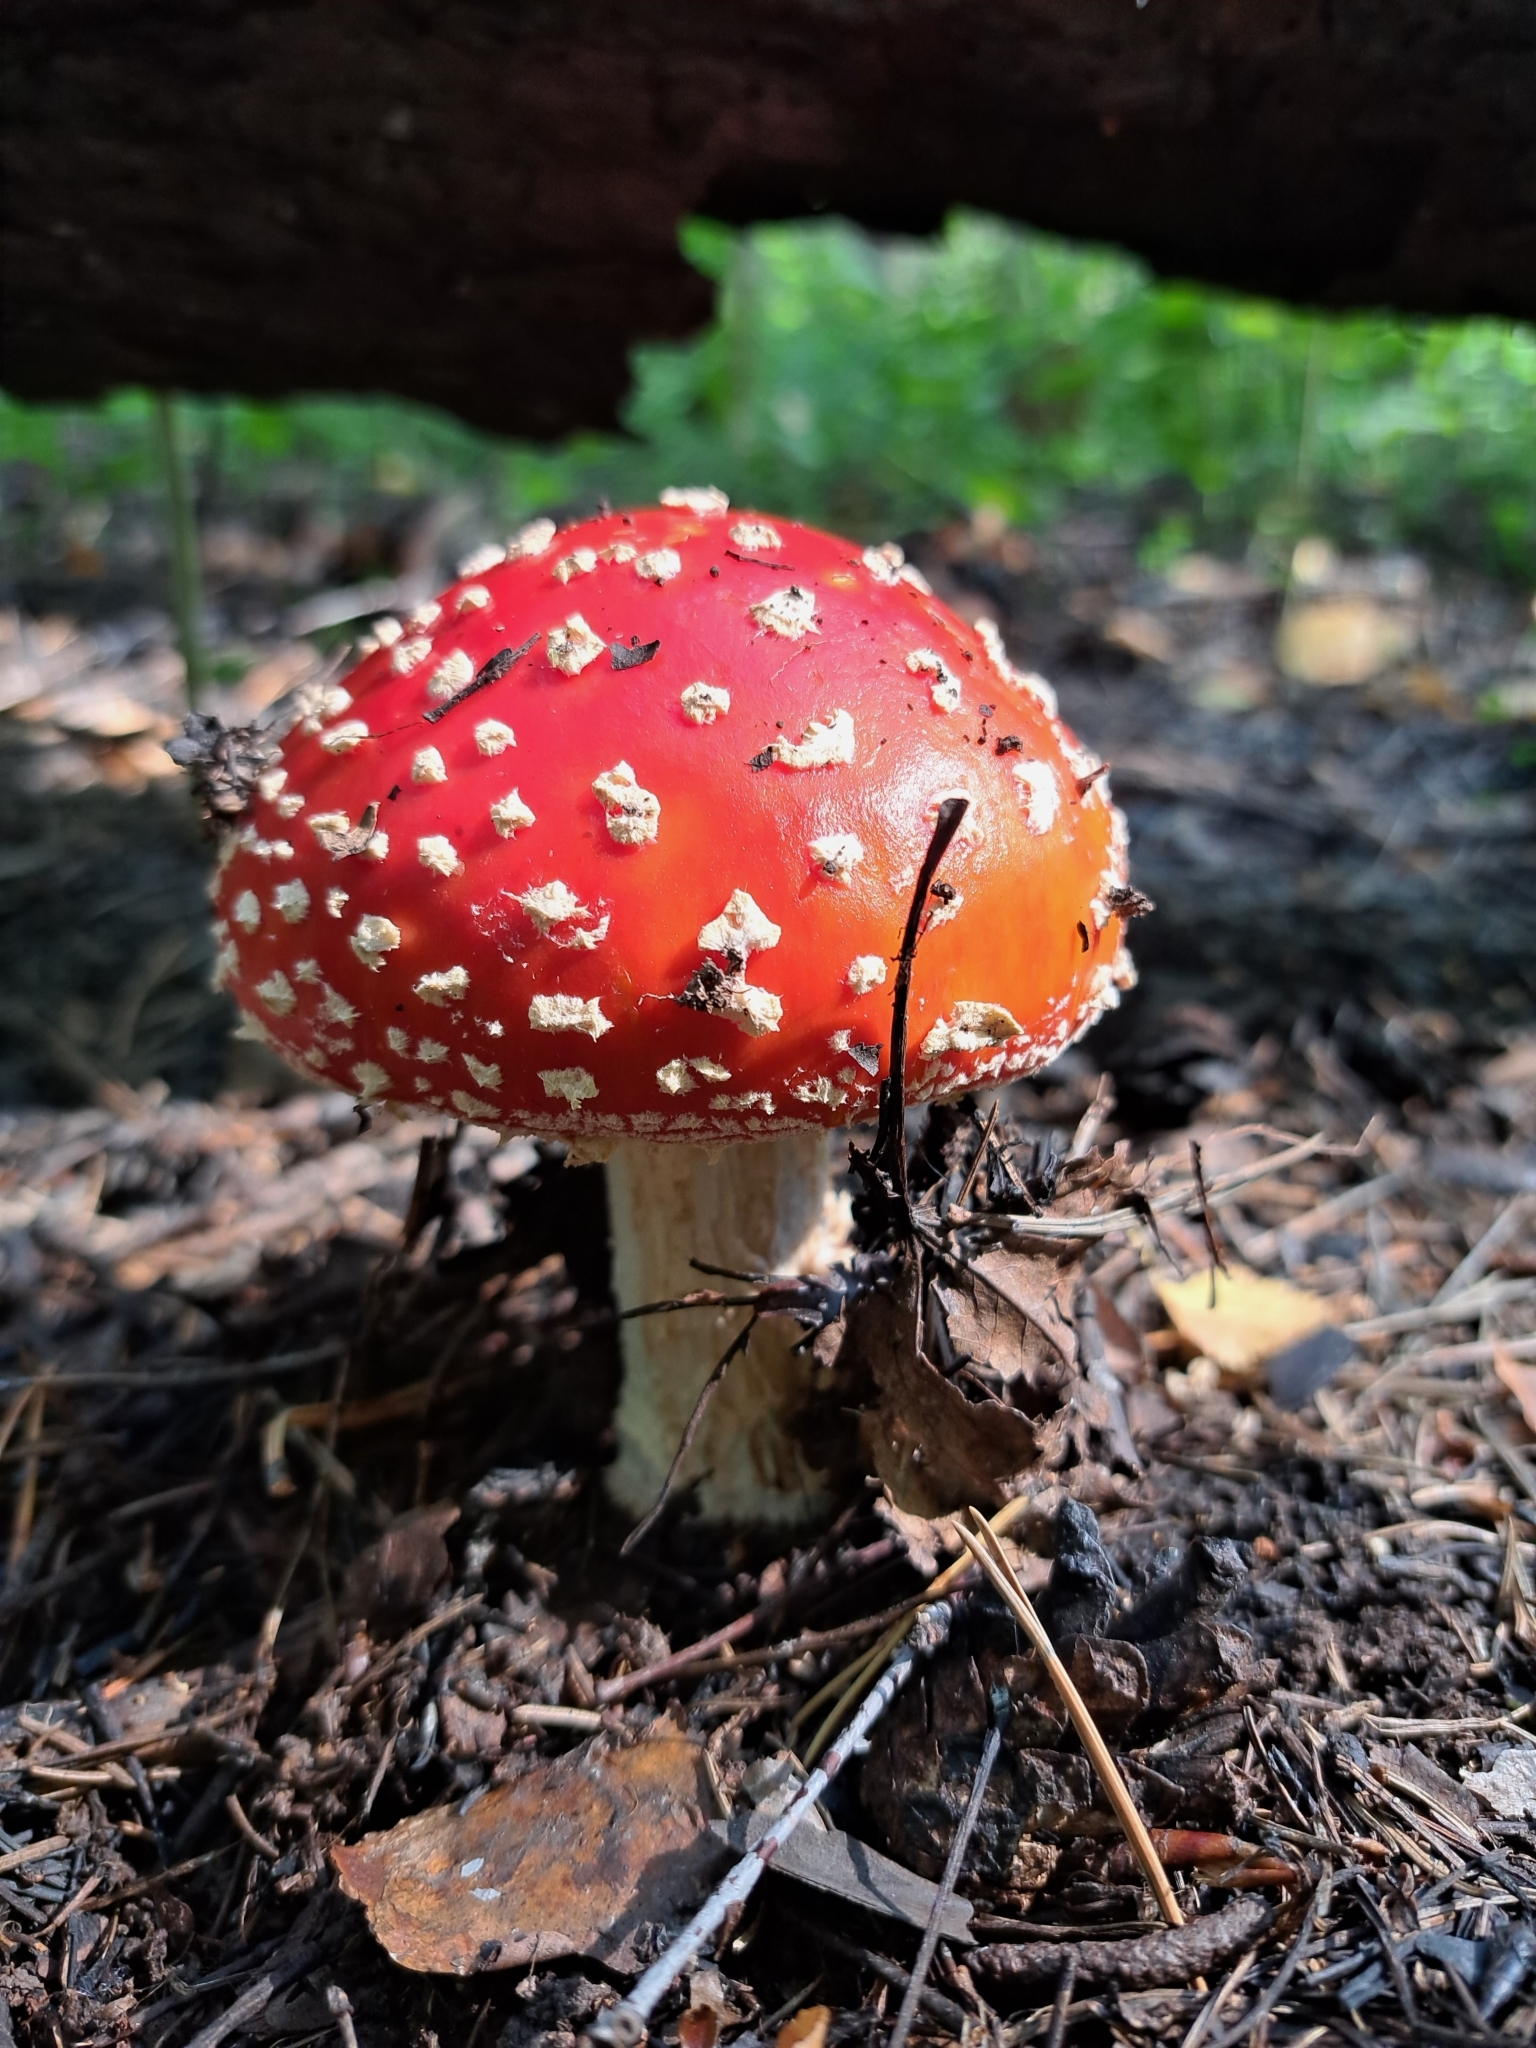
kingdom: Fungi
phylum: Basidiomycota
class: Agaricomycetes
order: Agaricales
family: Amanitaceae
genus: Amanita
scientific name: Amanita muscaria
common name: Fly agaric
